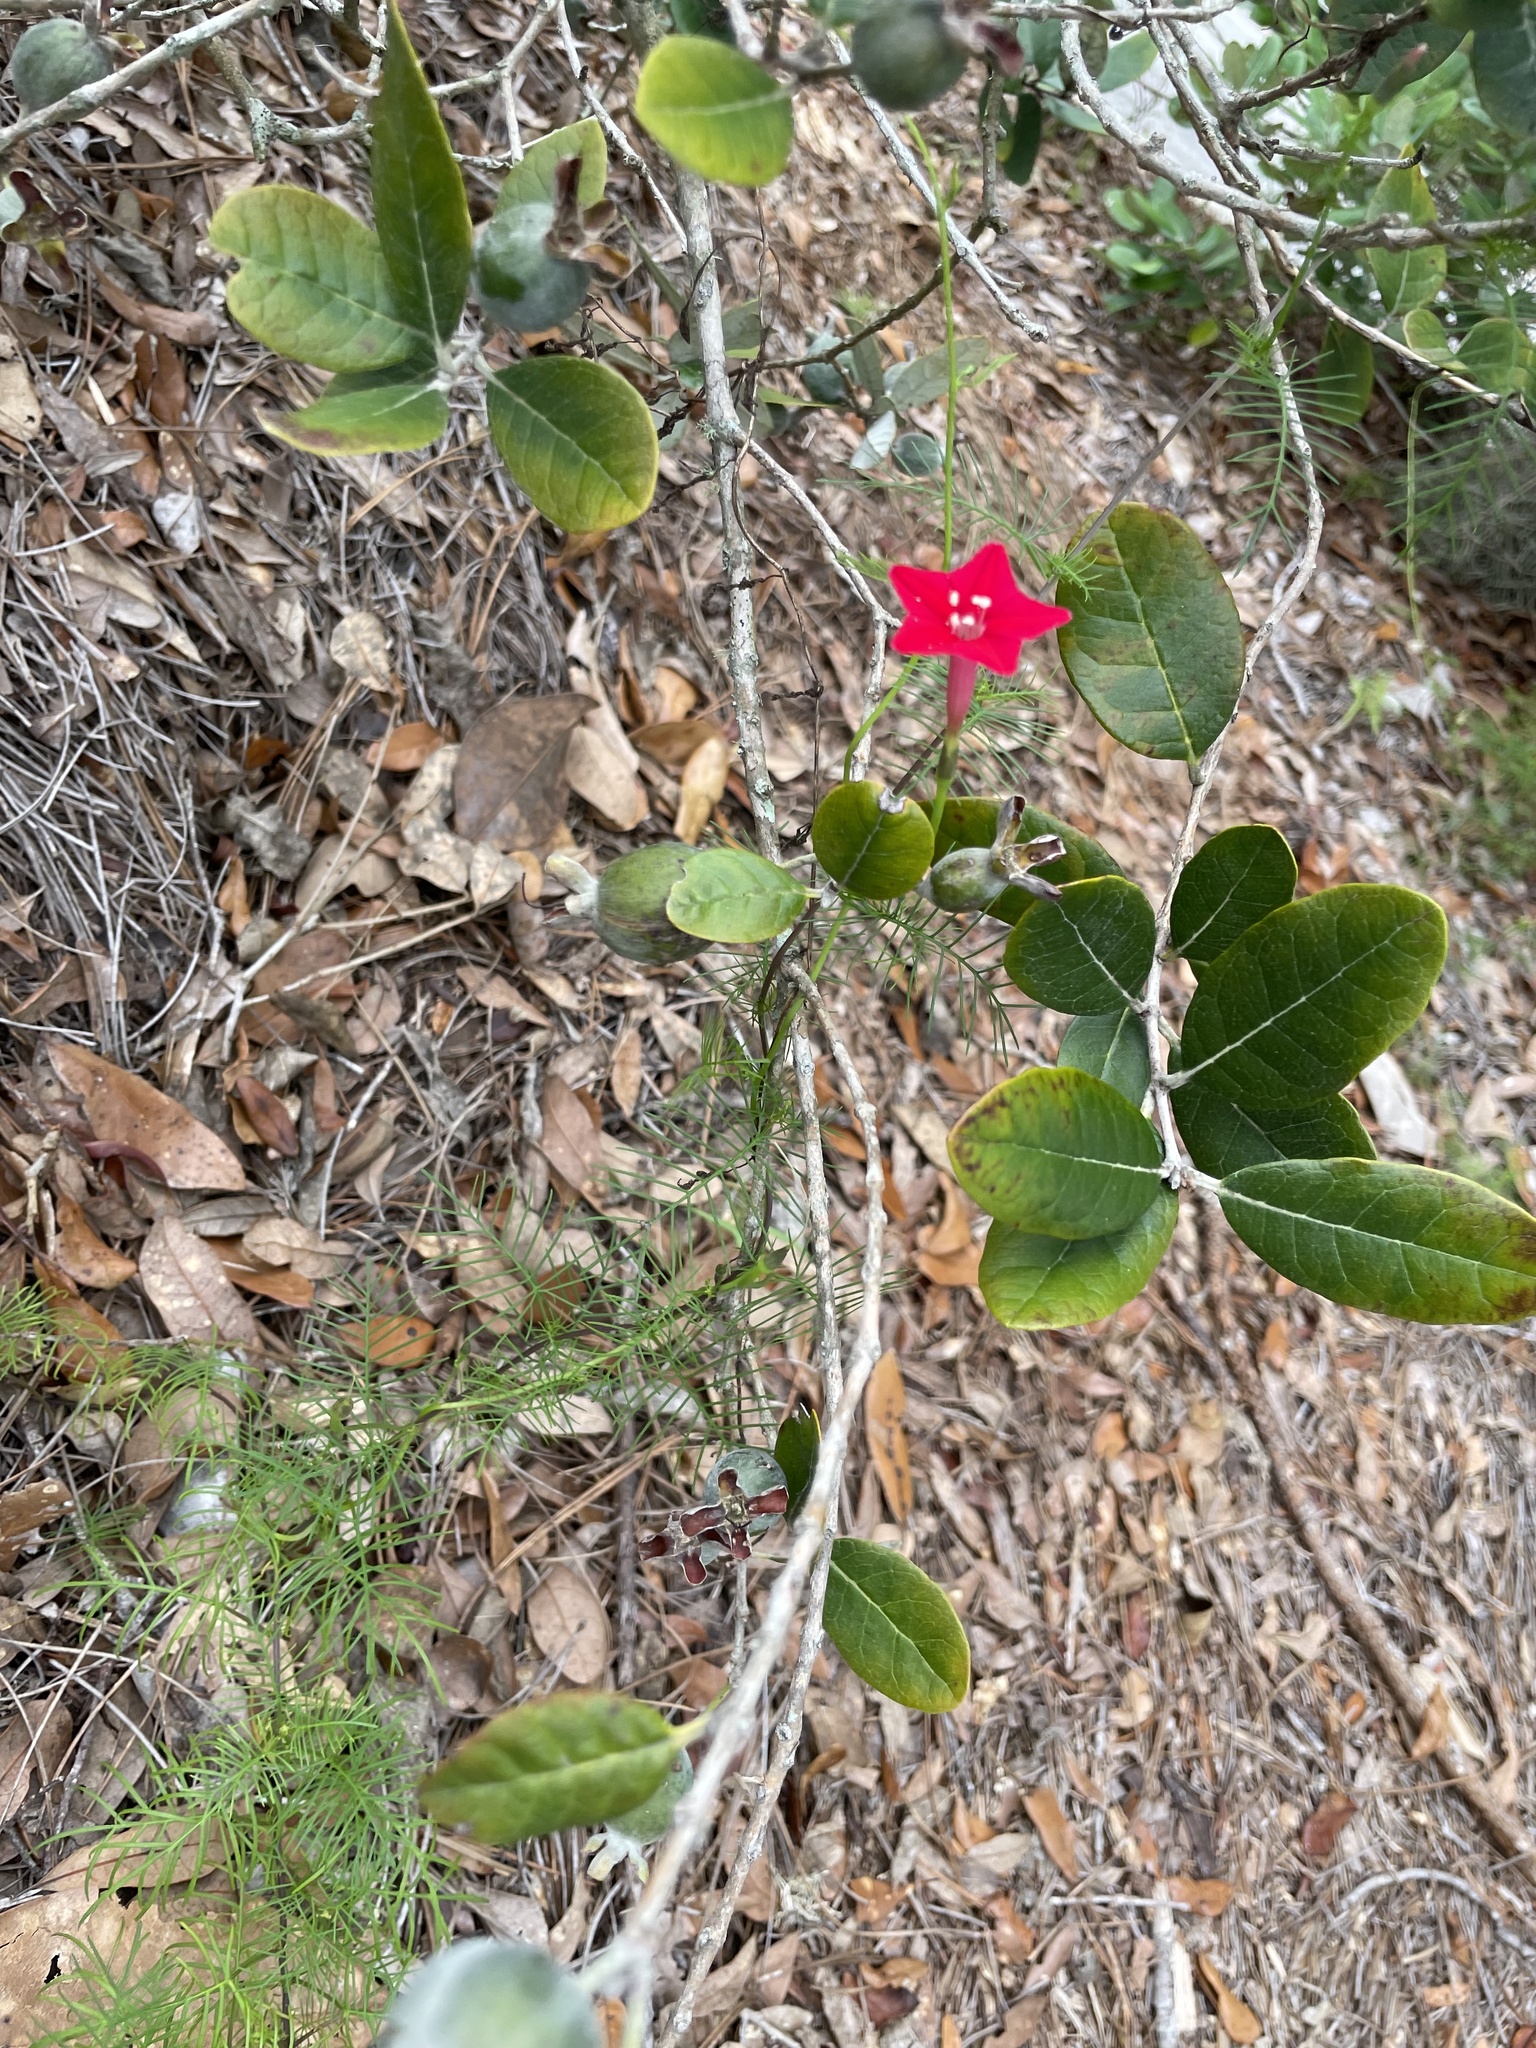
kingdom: Plantae
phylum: Tracheophyta
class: Magnoliopsida
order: Solanales
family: Convolvulaceae
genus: Ipomoea
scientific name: Ipomoea quamoclit
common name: Cypress vine
